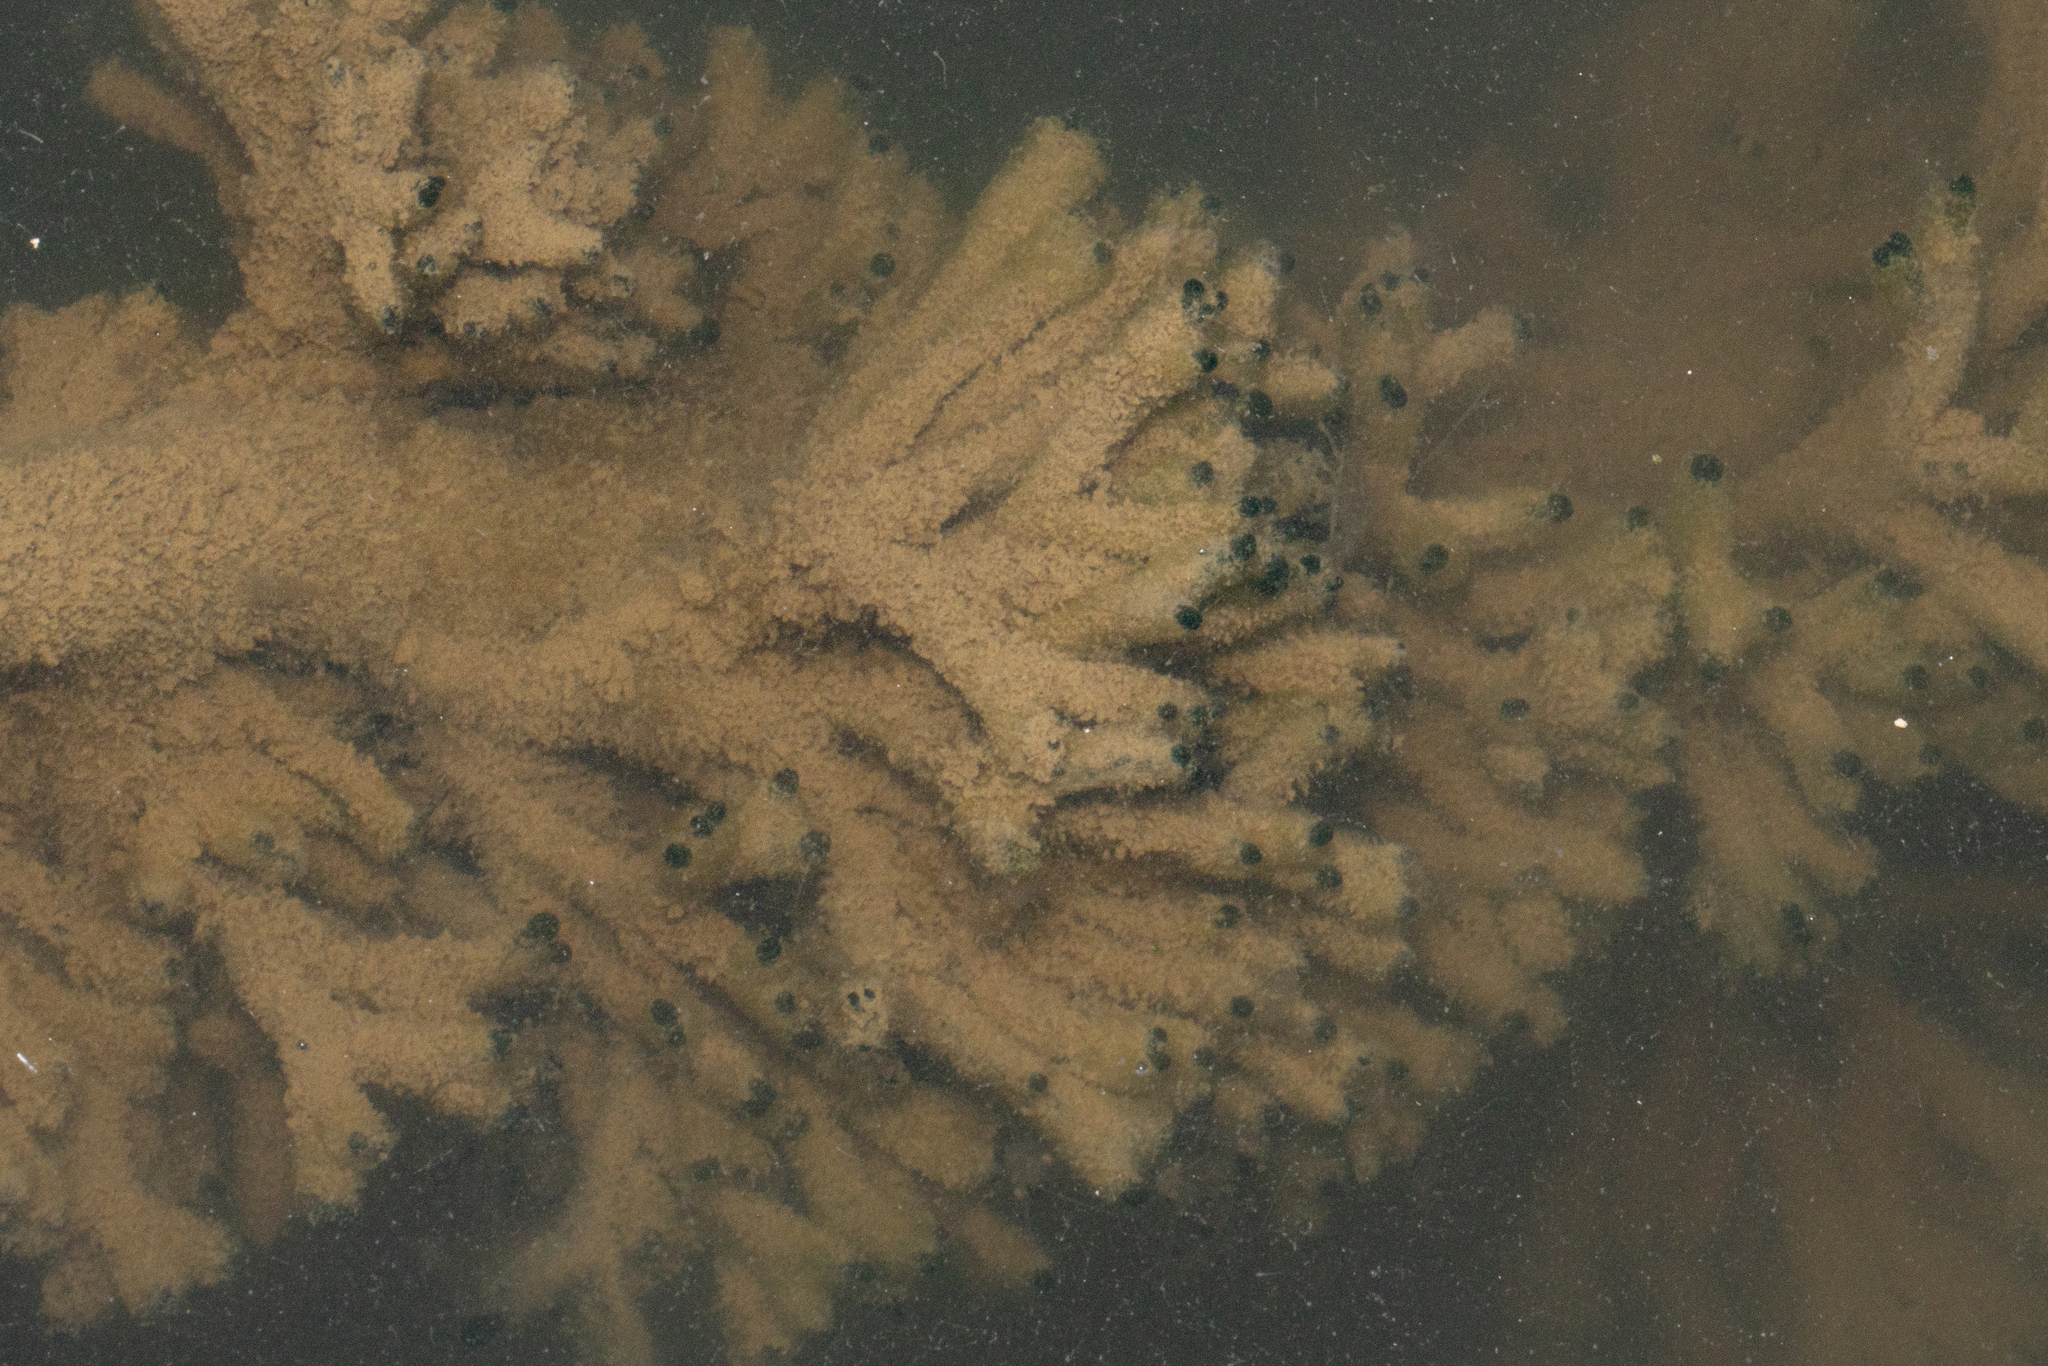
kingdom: Plantae
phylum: Chlorophyta
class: Ulvophyceae
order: Bryopsidales
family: Codiaceae
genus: Codium
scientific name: Codium fragile
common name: Dead man's fingers
